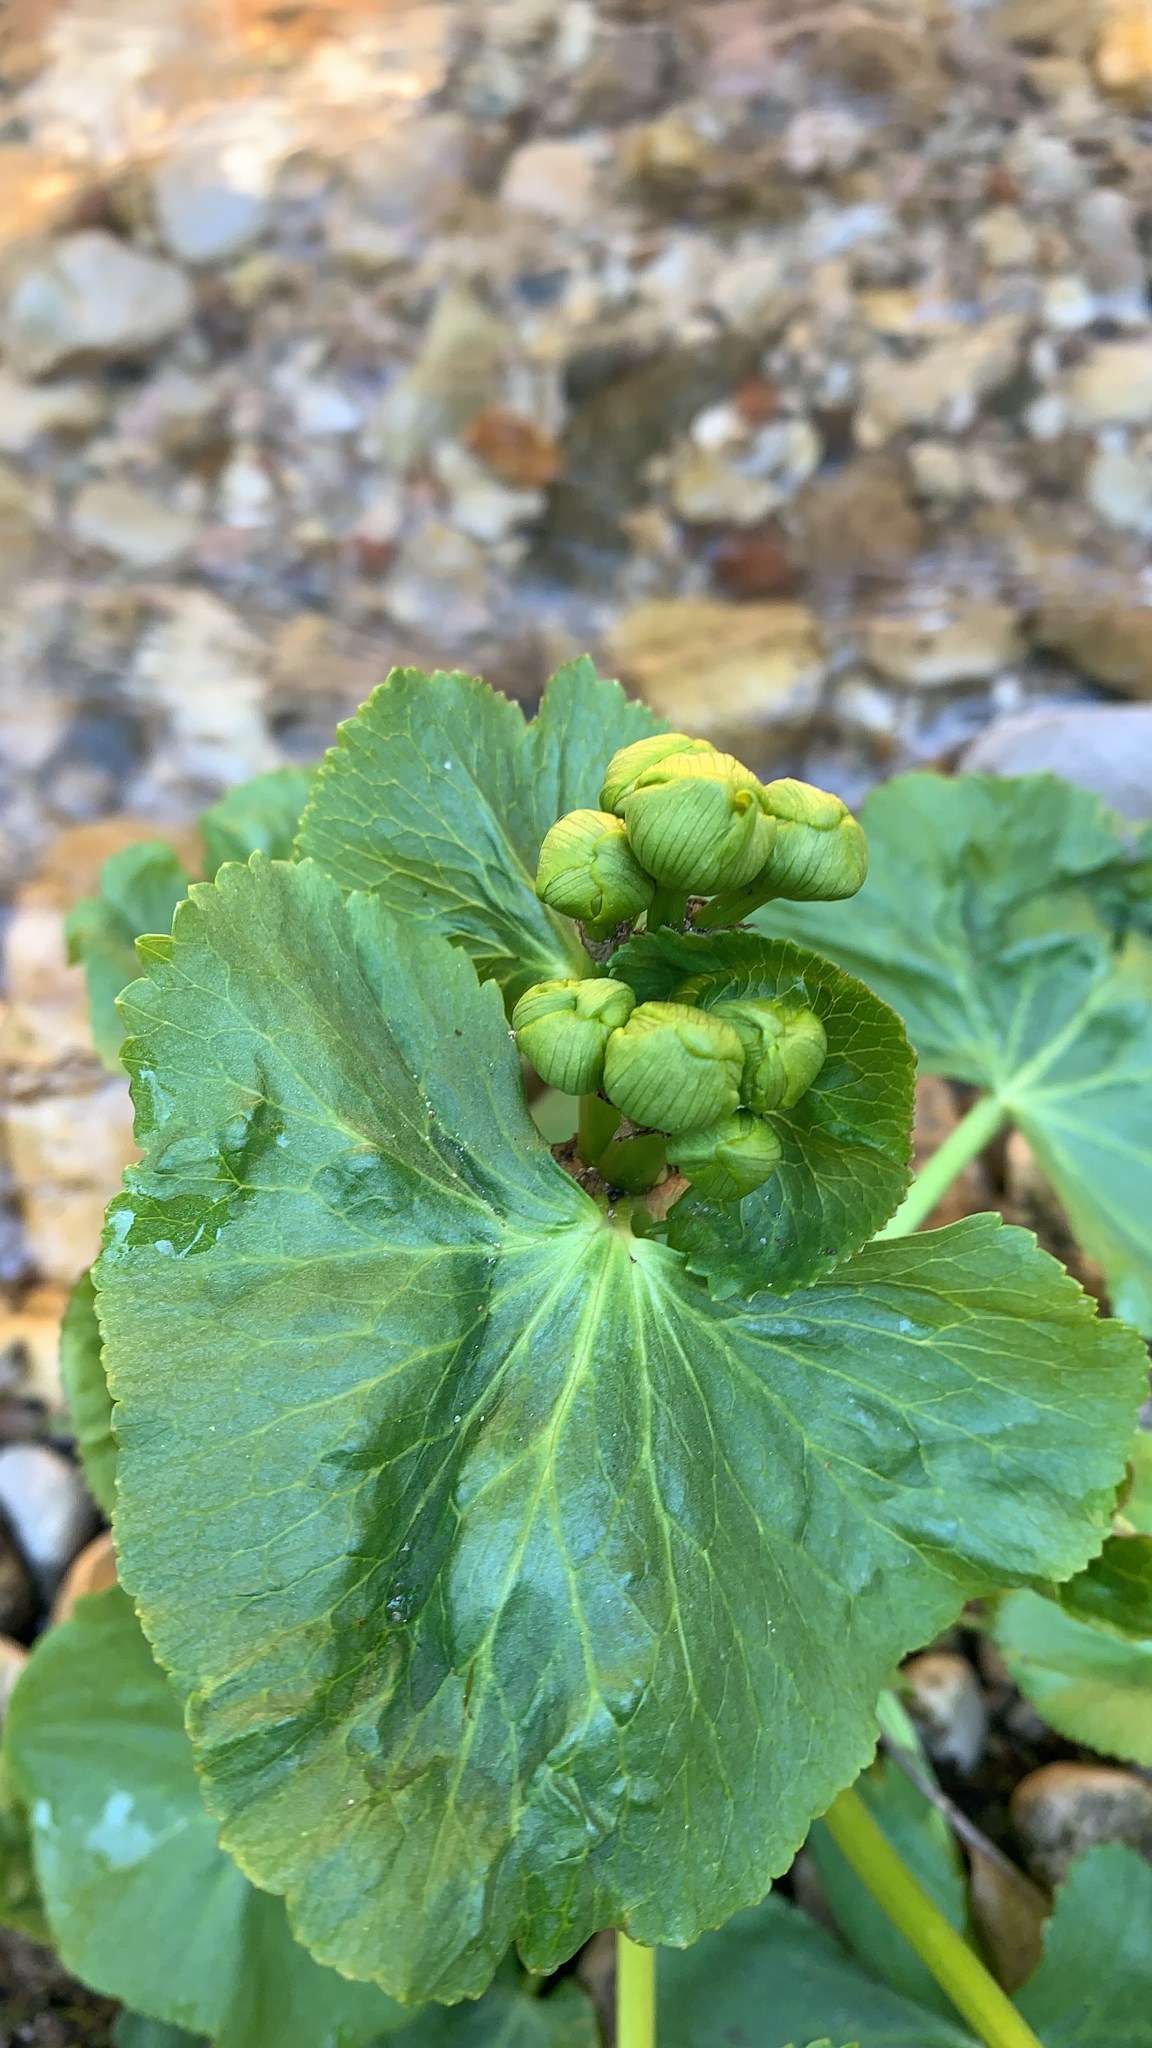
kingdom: Plantae
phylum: Tracheophyta
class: Magnoliopsida
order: Ranunculales
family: Ranunculaceae
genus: Caltha
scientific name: Caltha palustris
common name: Marsh marigold
